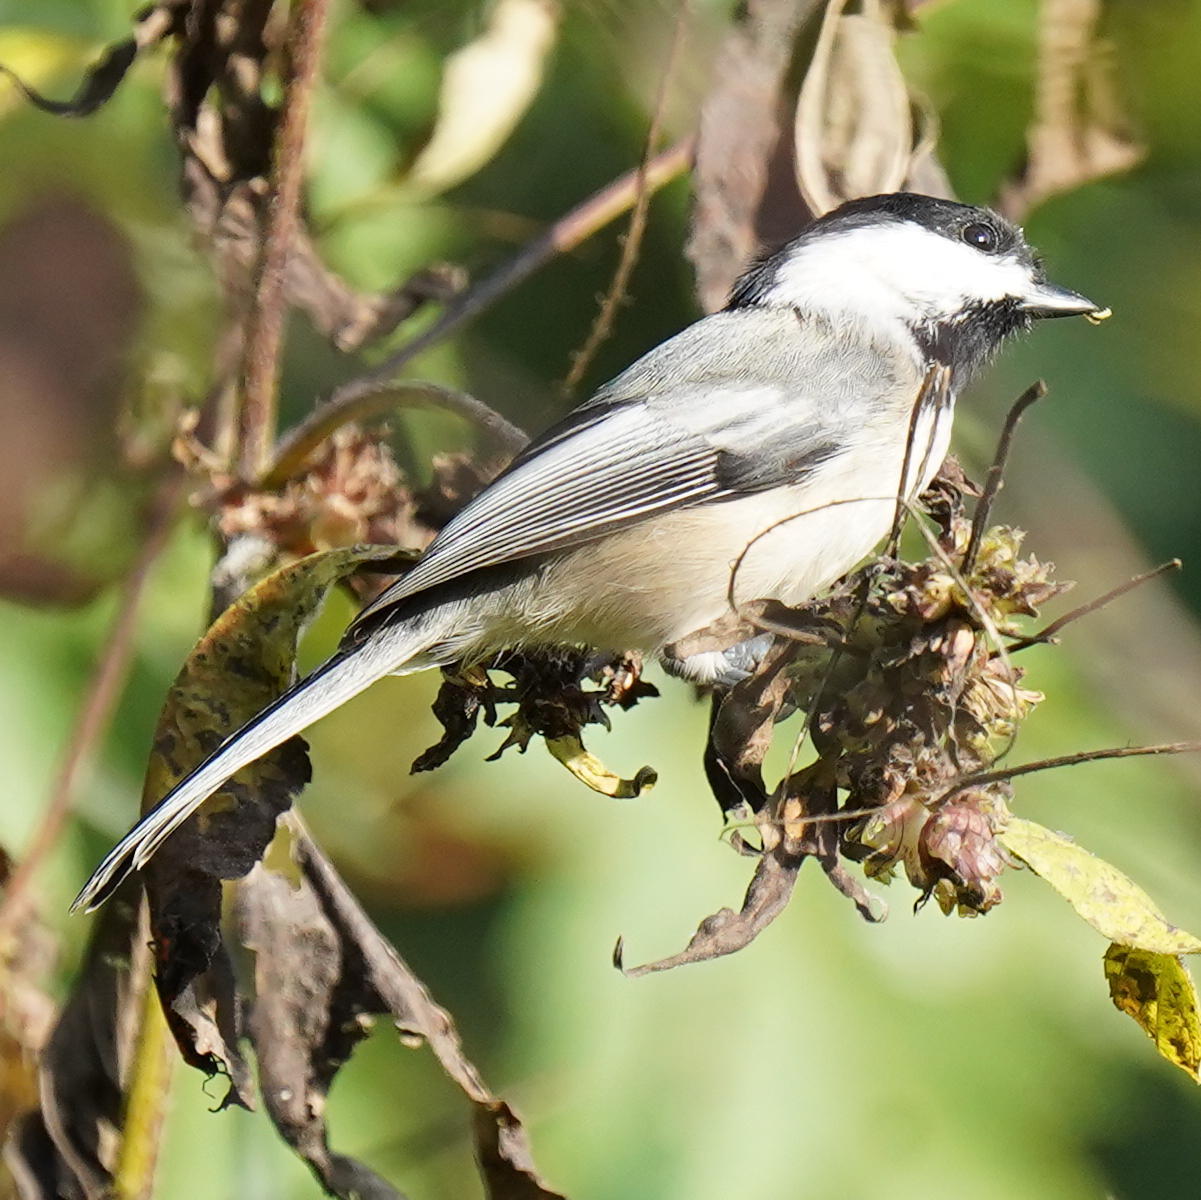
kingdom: Animalia
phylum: Chordata
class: Aves
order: Passeriformes
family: Paridae
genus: Poecile
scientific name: Poecile atricapillus
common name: Black-capped chickadee
